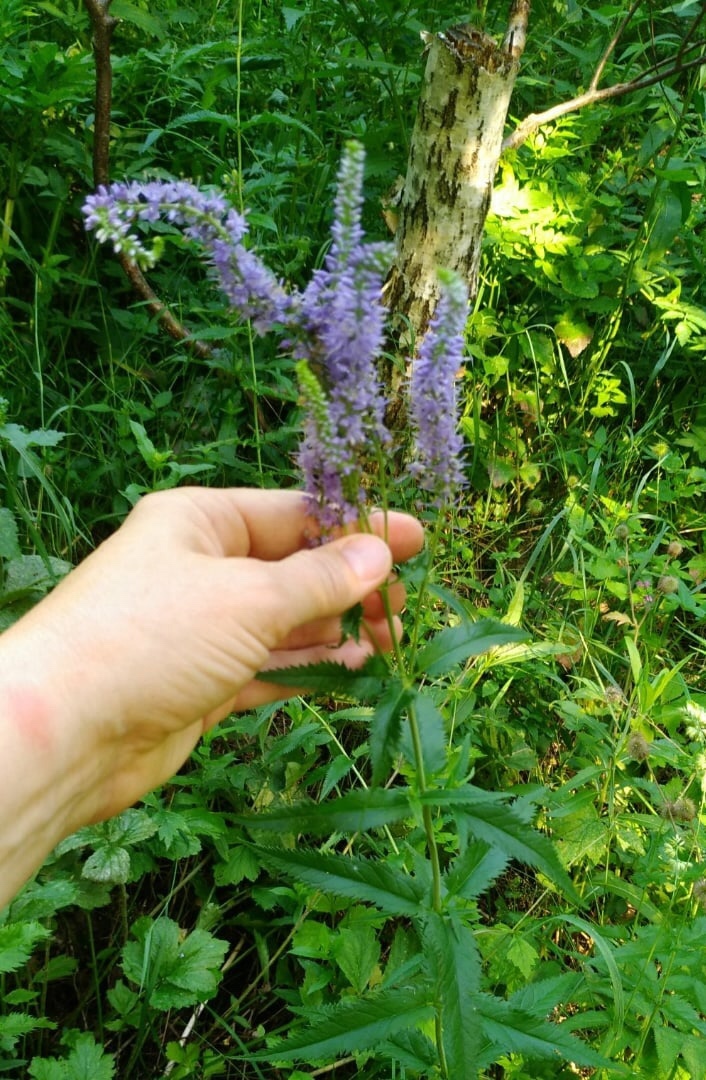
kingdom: Plantae
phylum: Tracheophyta
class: Magnoliopsida
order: Lamiales
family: Plantaginaceae
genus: Veronica
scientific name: Veronica longifolia
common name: Garden speedwell
